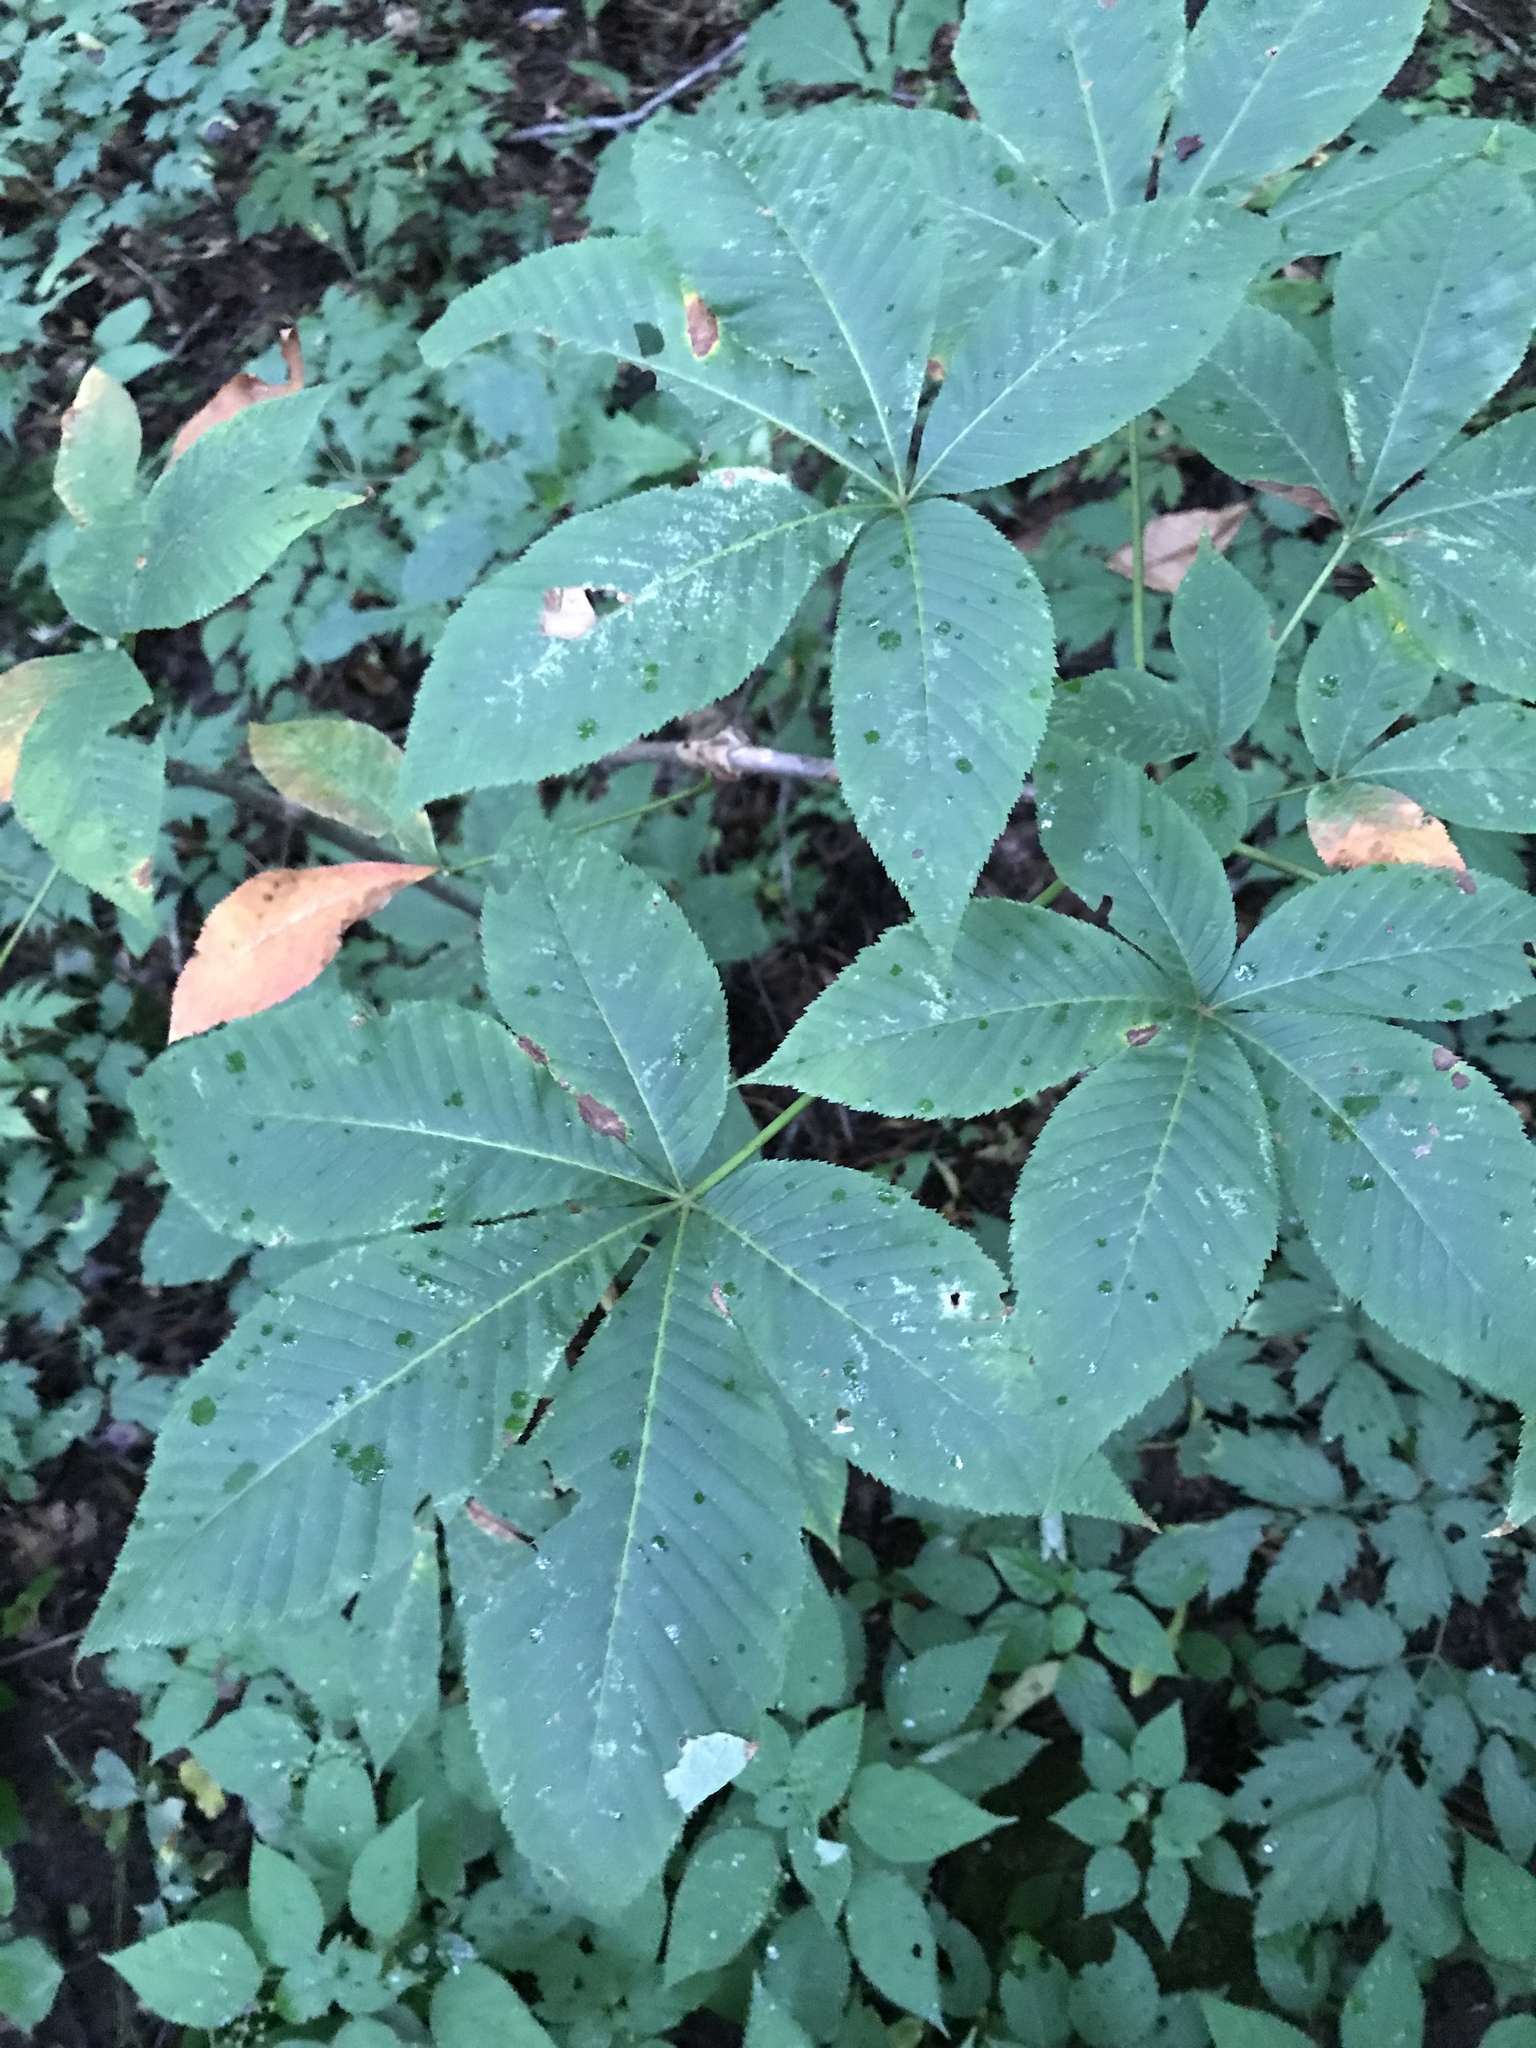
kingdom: Plantae
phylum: Tracheophyta
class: Magnoliopsida
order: Sapindales
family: Sapindaceae
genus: Aesculus
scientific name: Aesculus flava
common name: Yellow buckeye
